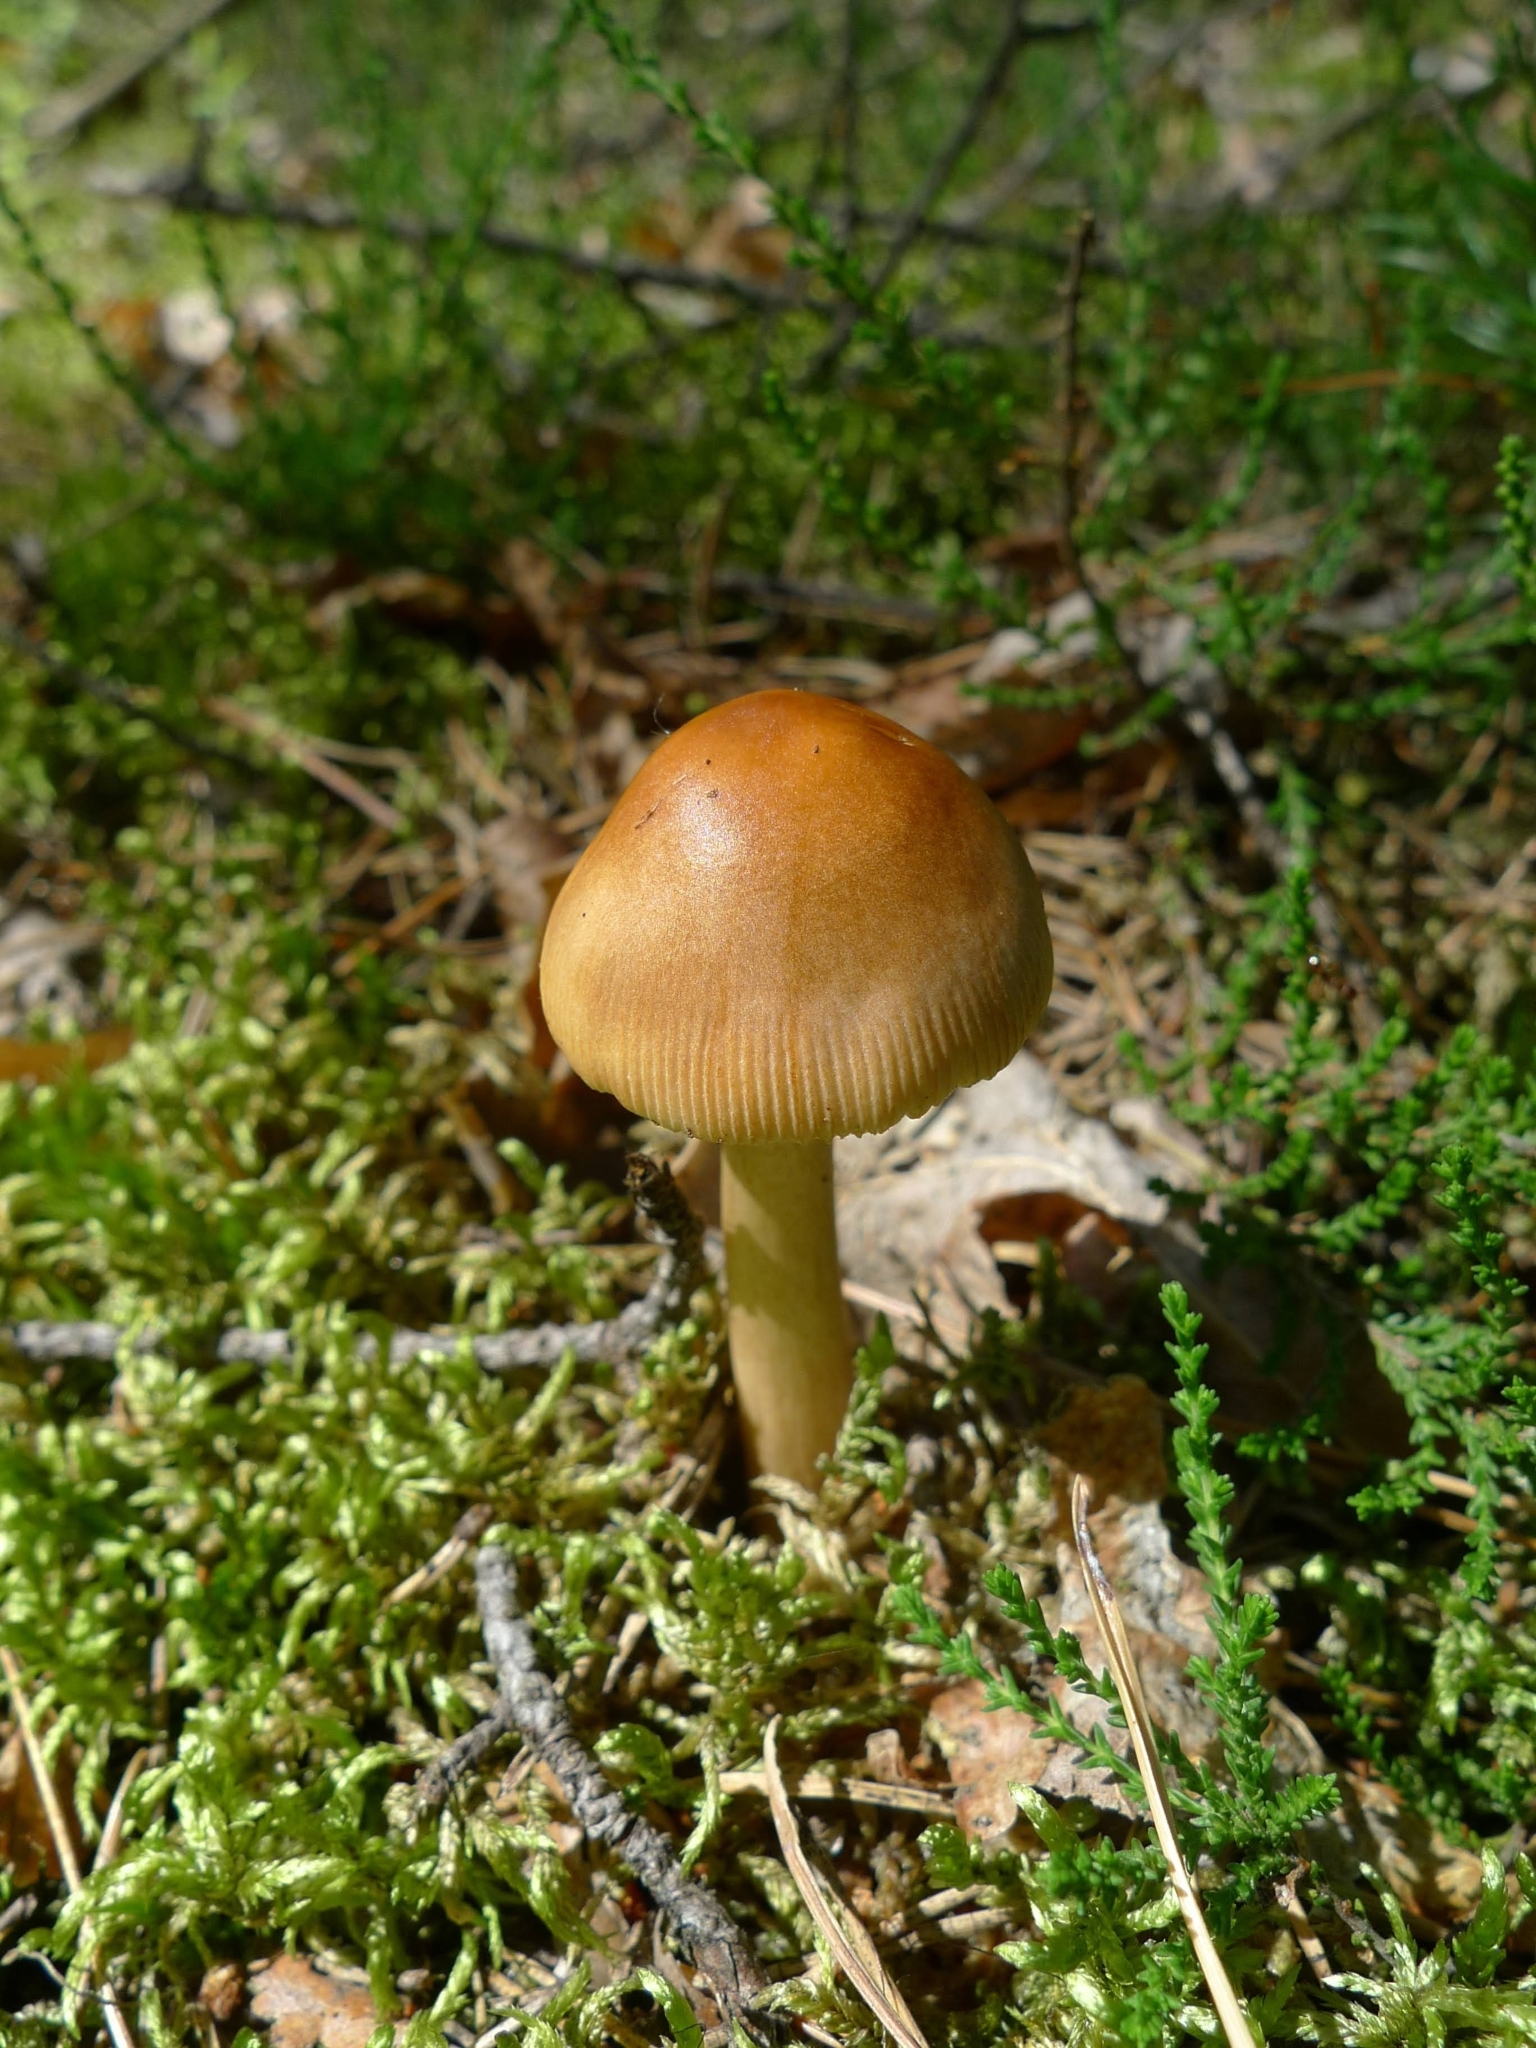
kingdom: Fungi
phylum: Basidiomycota
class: Agaricomycetes
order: Agaricales
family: Amanitaceae
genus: Amanita
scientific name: Amanita fulva
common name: Tawny grisette
